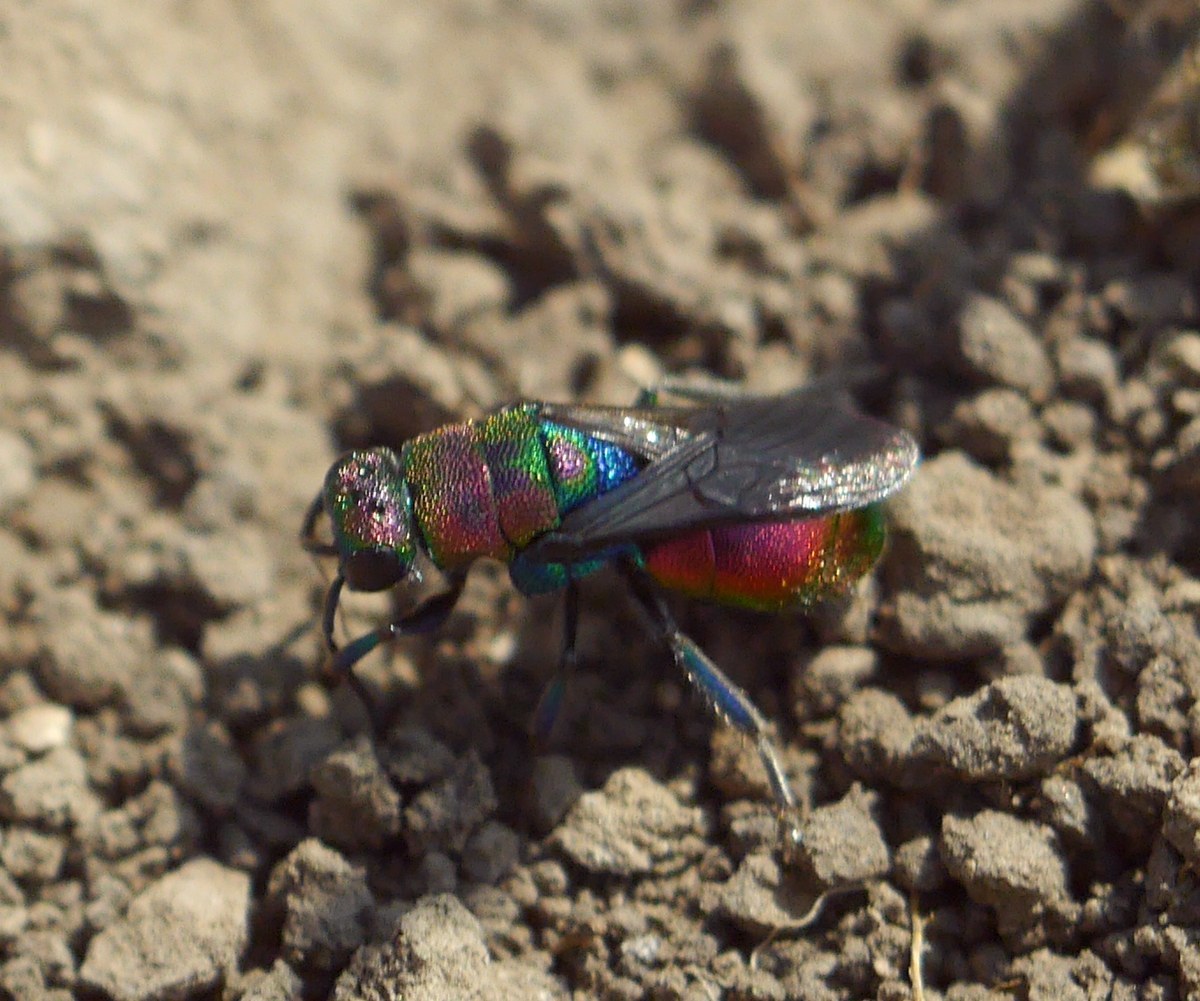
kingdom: Animalia
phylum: Arthropoda
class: Insecta
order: Hymenoptera
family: Chrysididae
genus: Hedychrum
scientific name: Hedychrum rutilans
